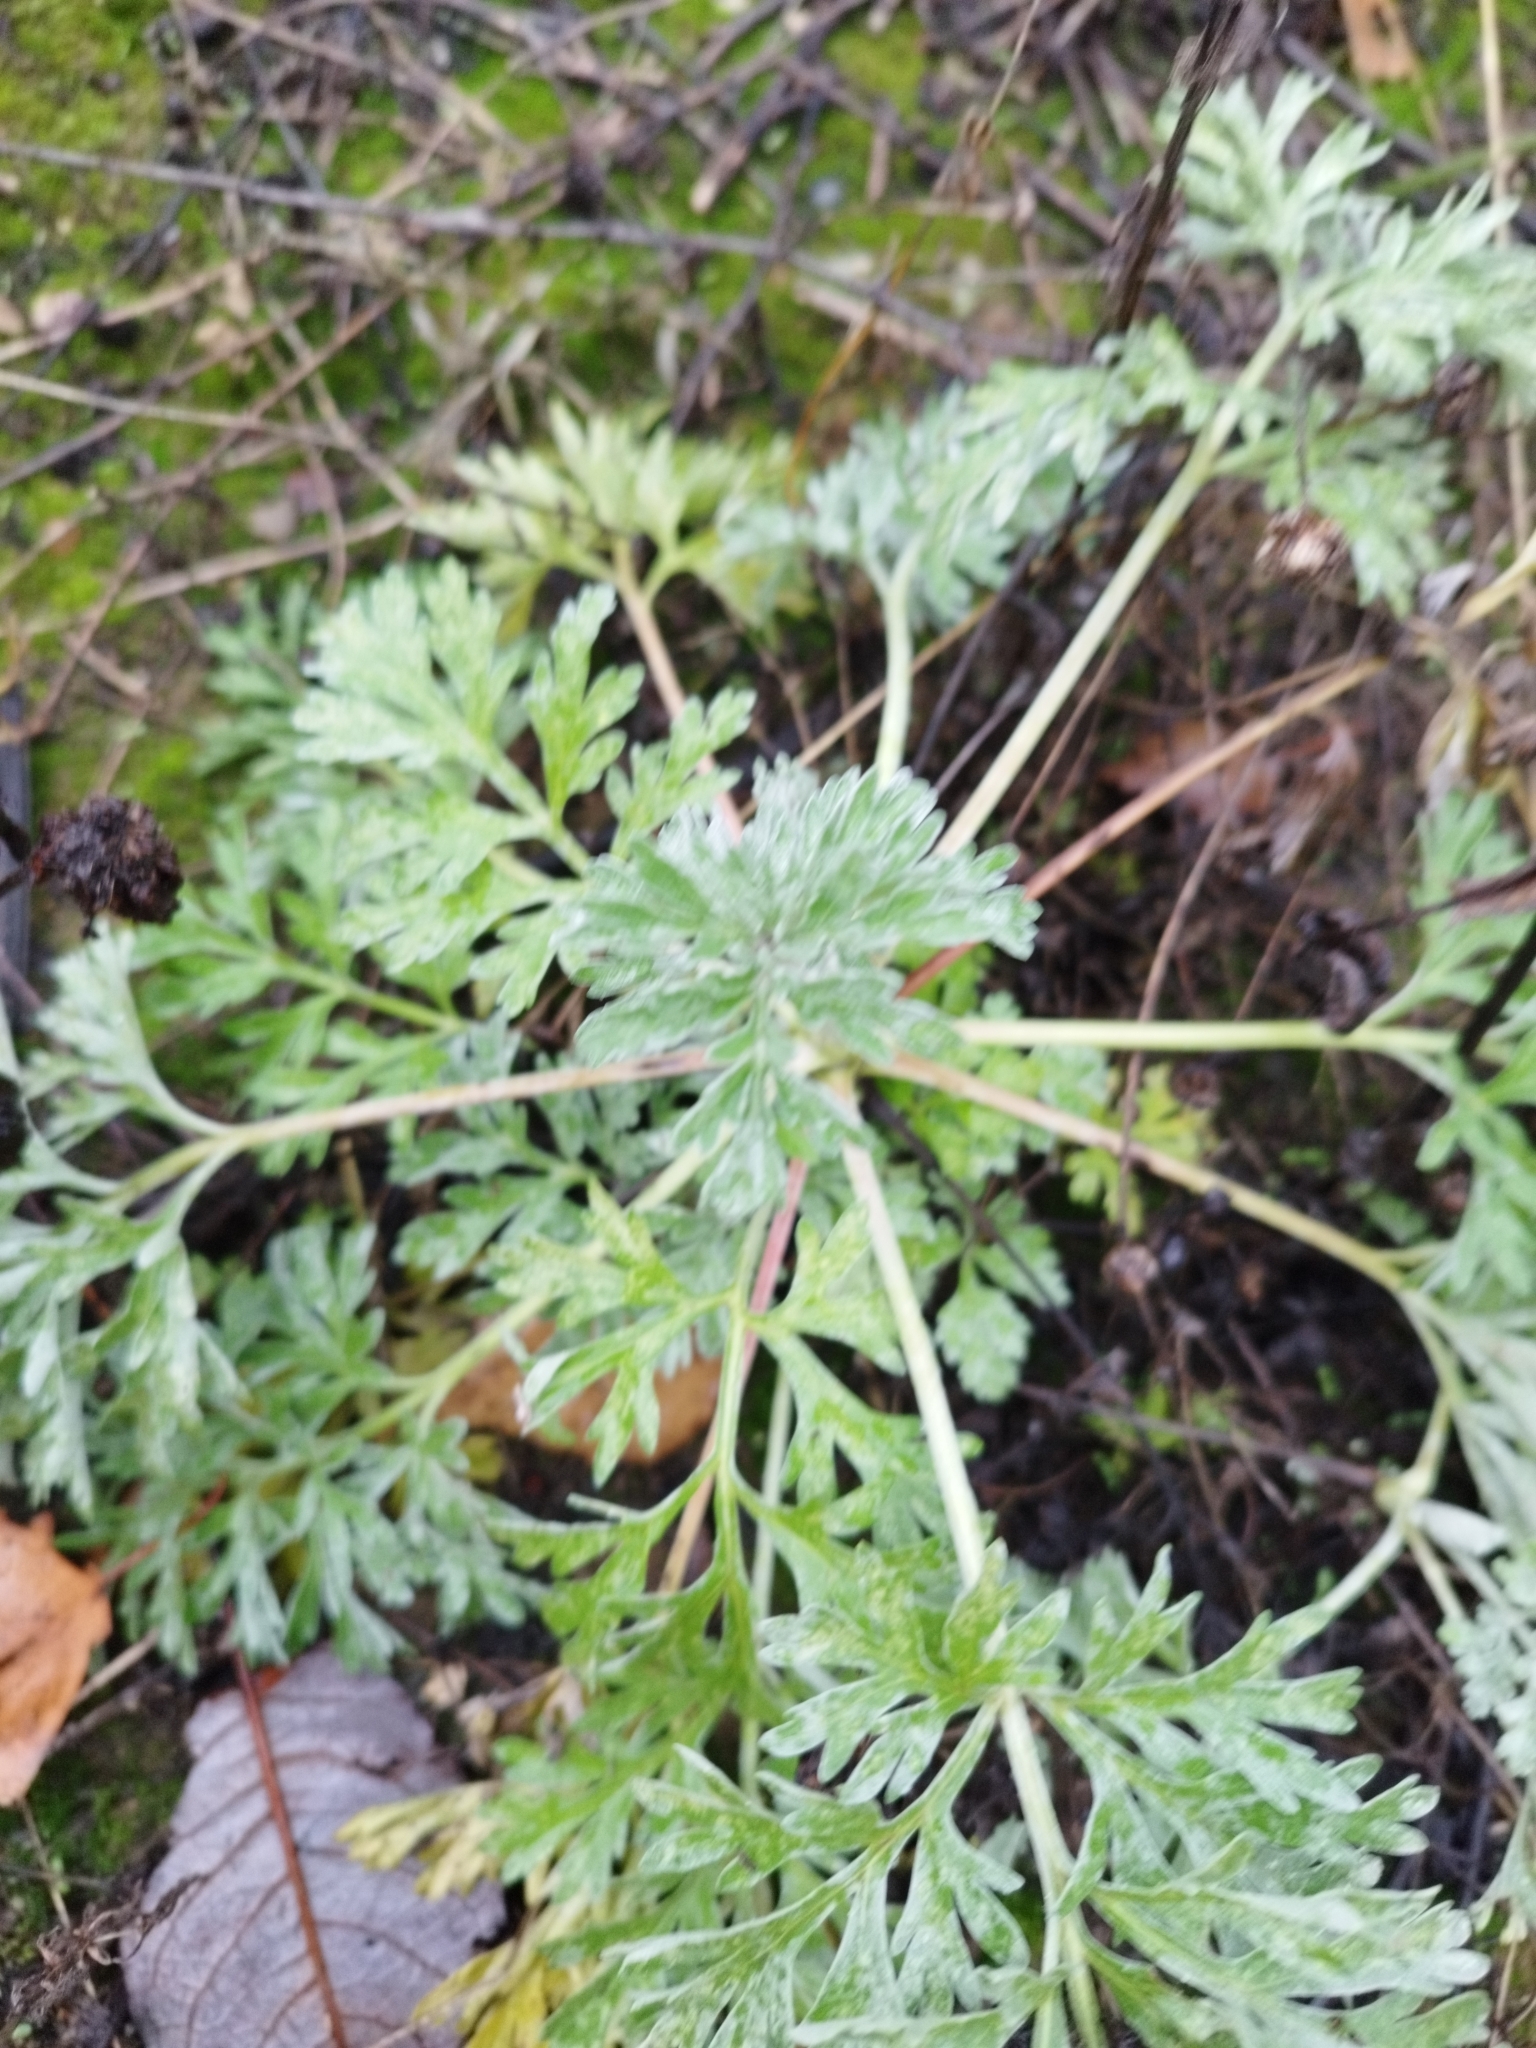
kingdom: Plantae
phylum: Tracheophyta
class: Magnoliopsida
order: Asterales
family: Asteraceae
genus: Artemisia
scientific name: Artemisia absinthium
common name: Wormwood
